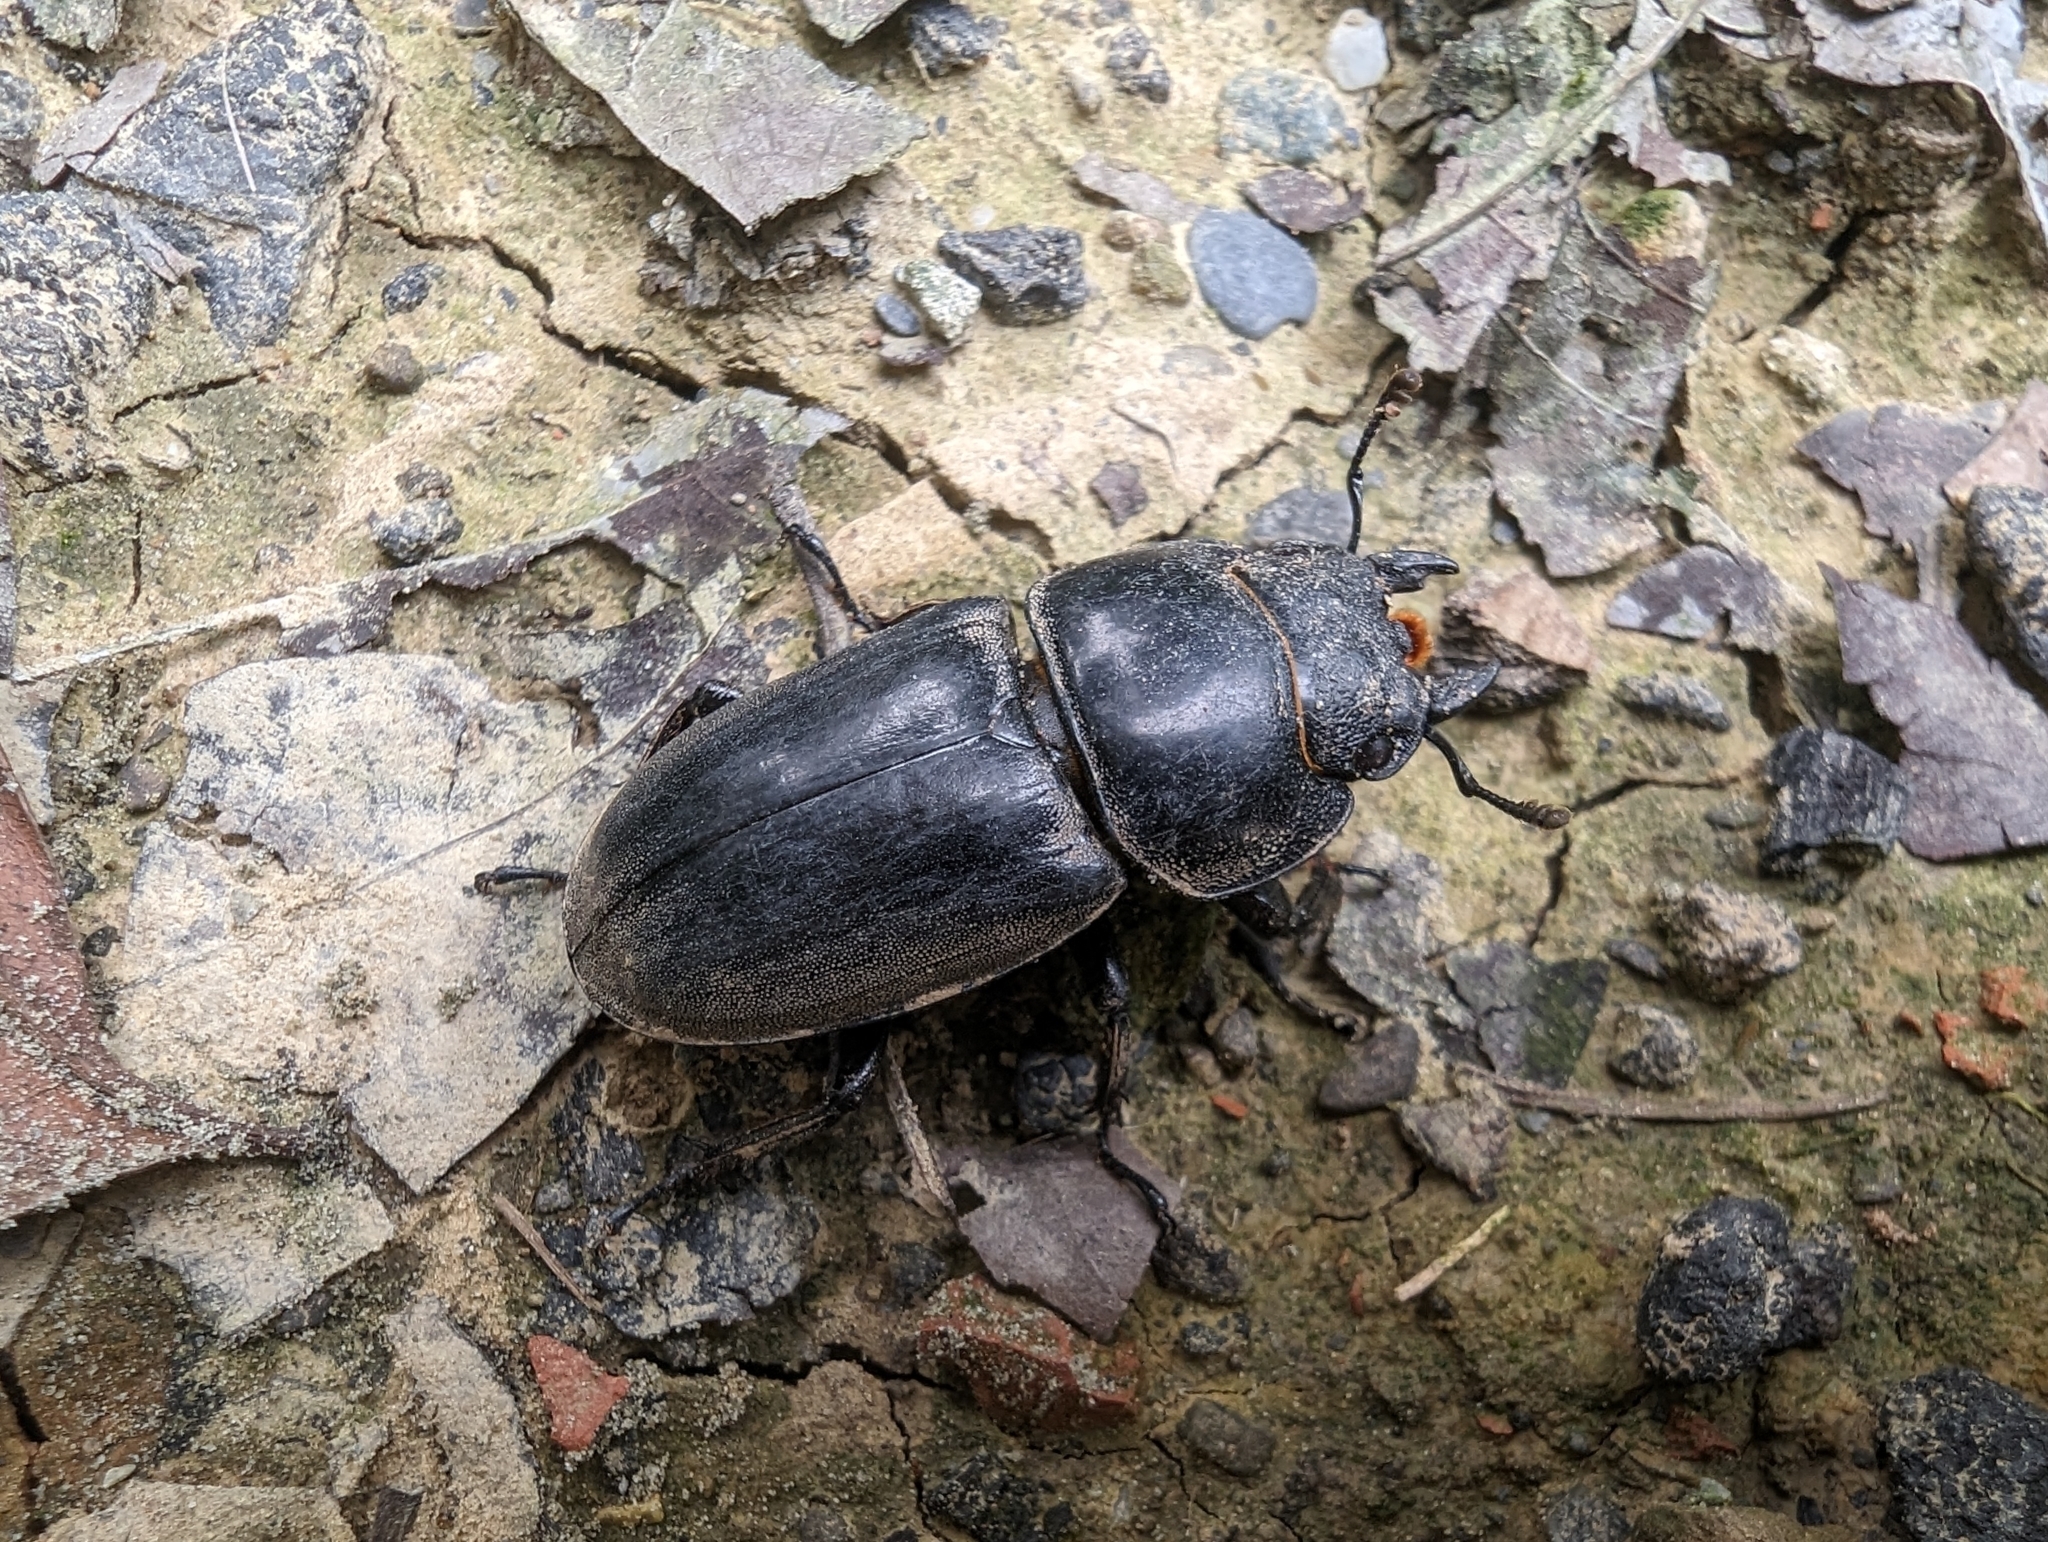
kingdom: Animalia
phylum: Arthropoda
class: Insecta
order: Coleoptera
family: Lucanidae
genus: Serrognathus
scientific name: Serrognathus titanus
